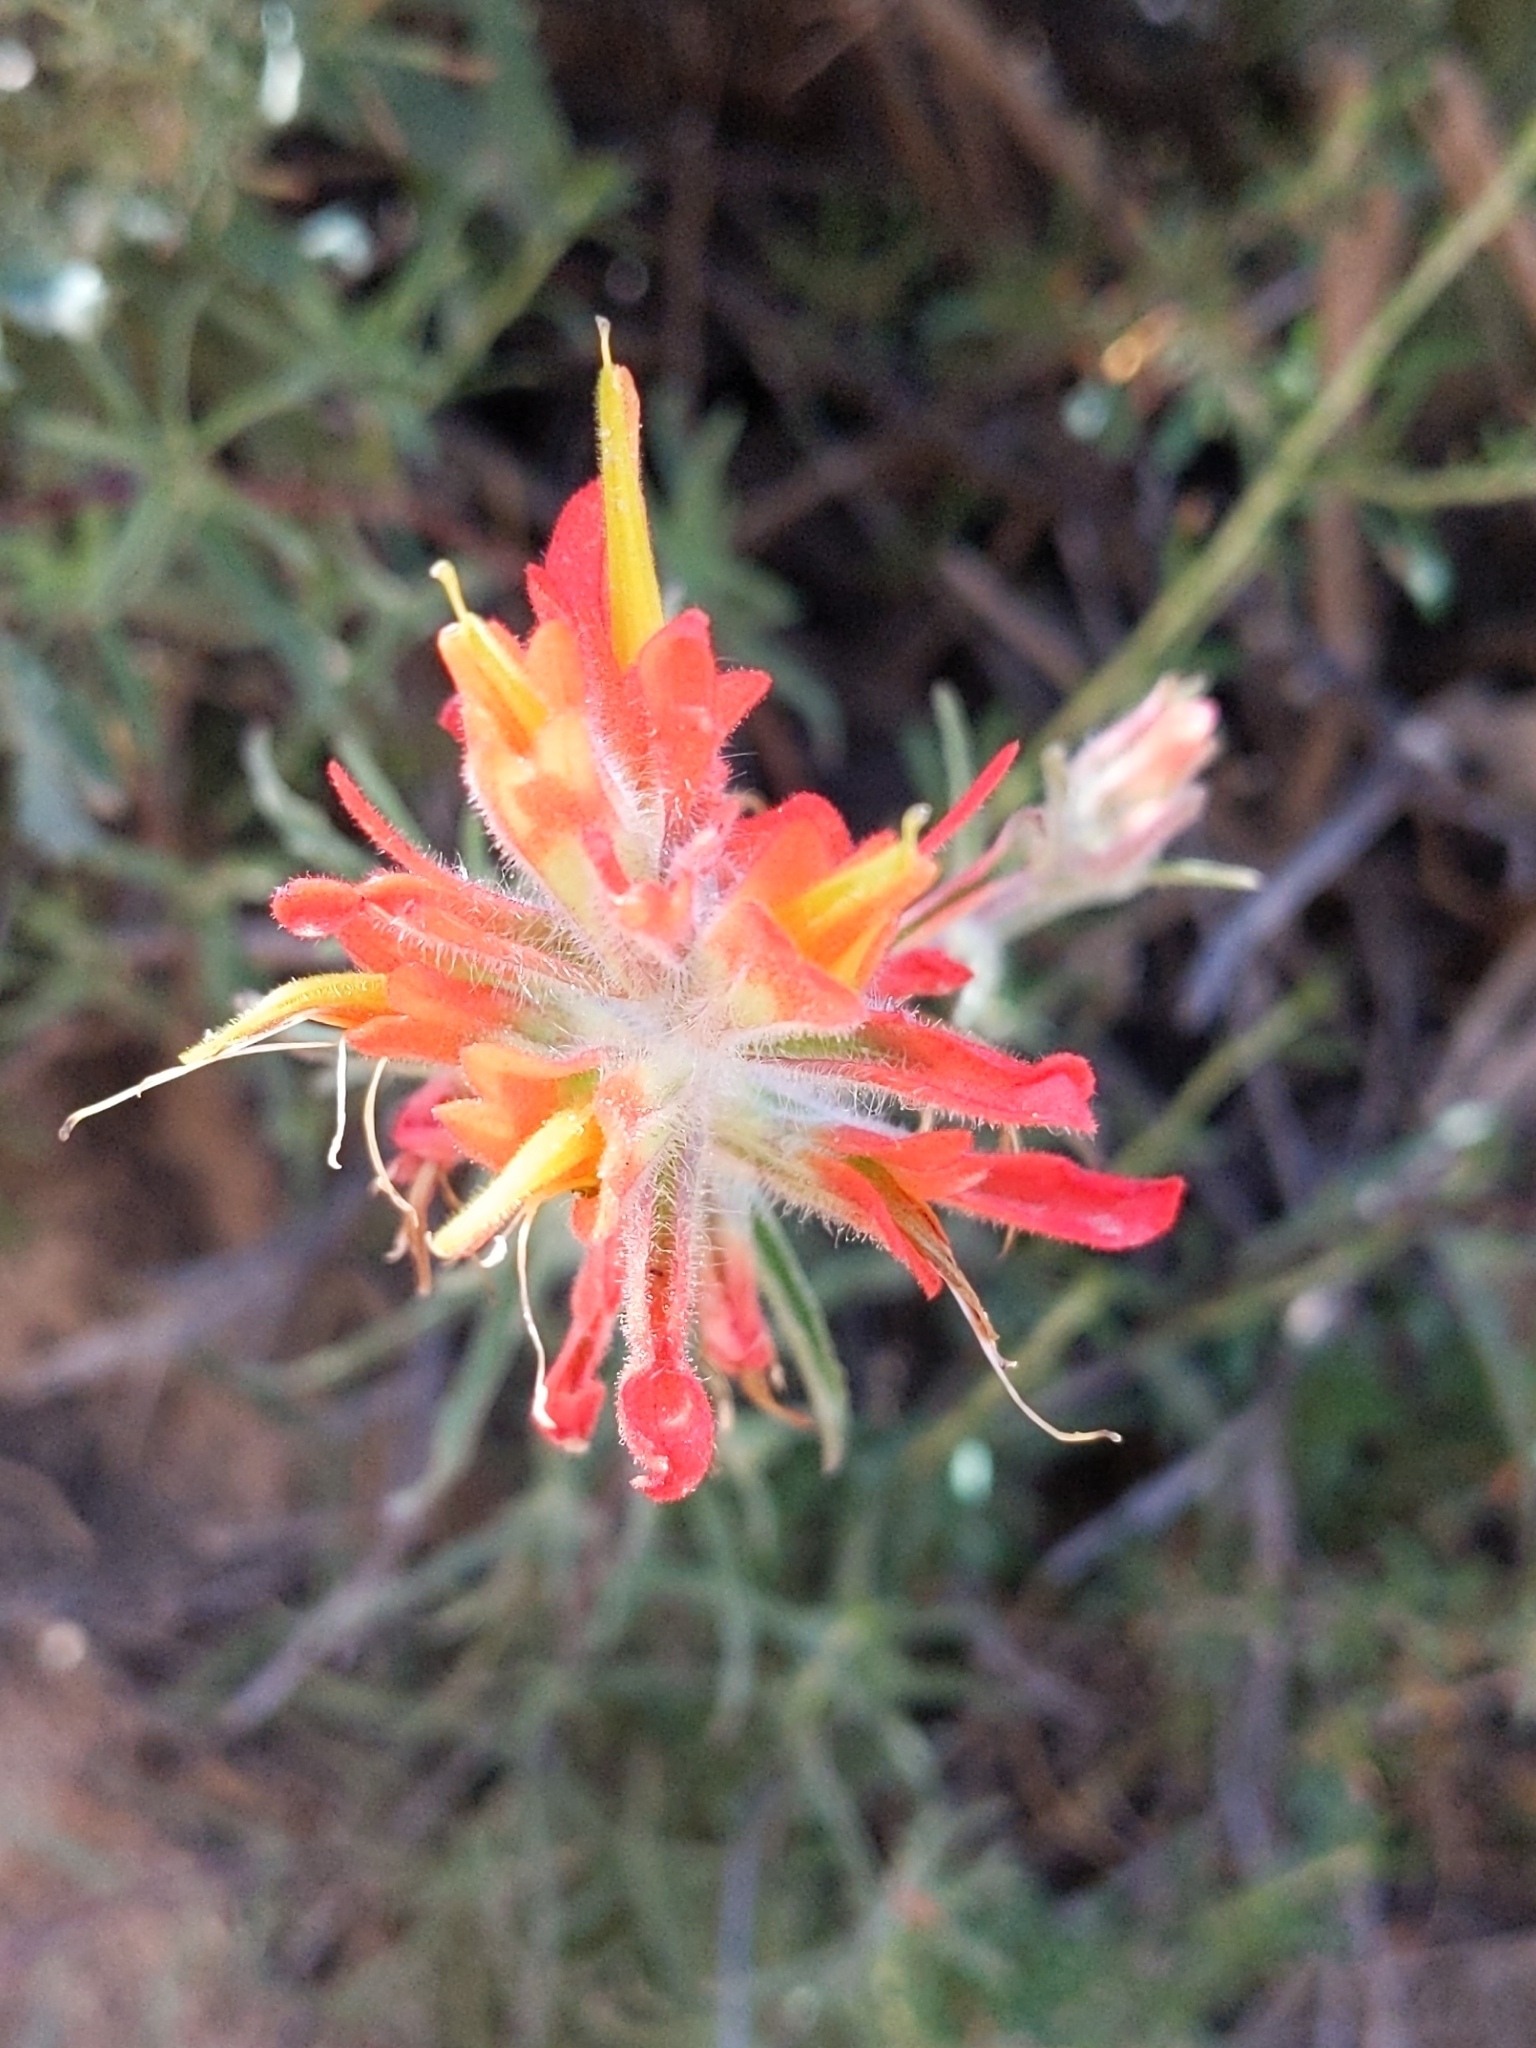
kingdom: Plantae
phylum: Tracheophyta
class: Magnoliopsida
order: Lamiales
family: Orobanchaceae
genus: Castilleja
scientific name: Castilleja affinis
